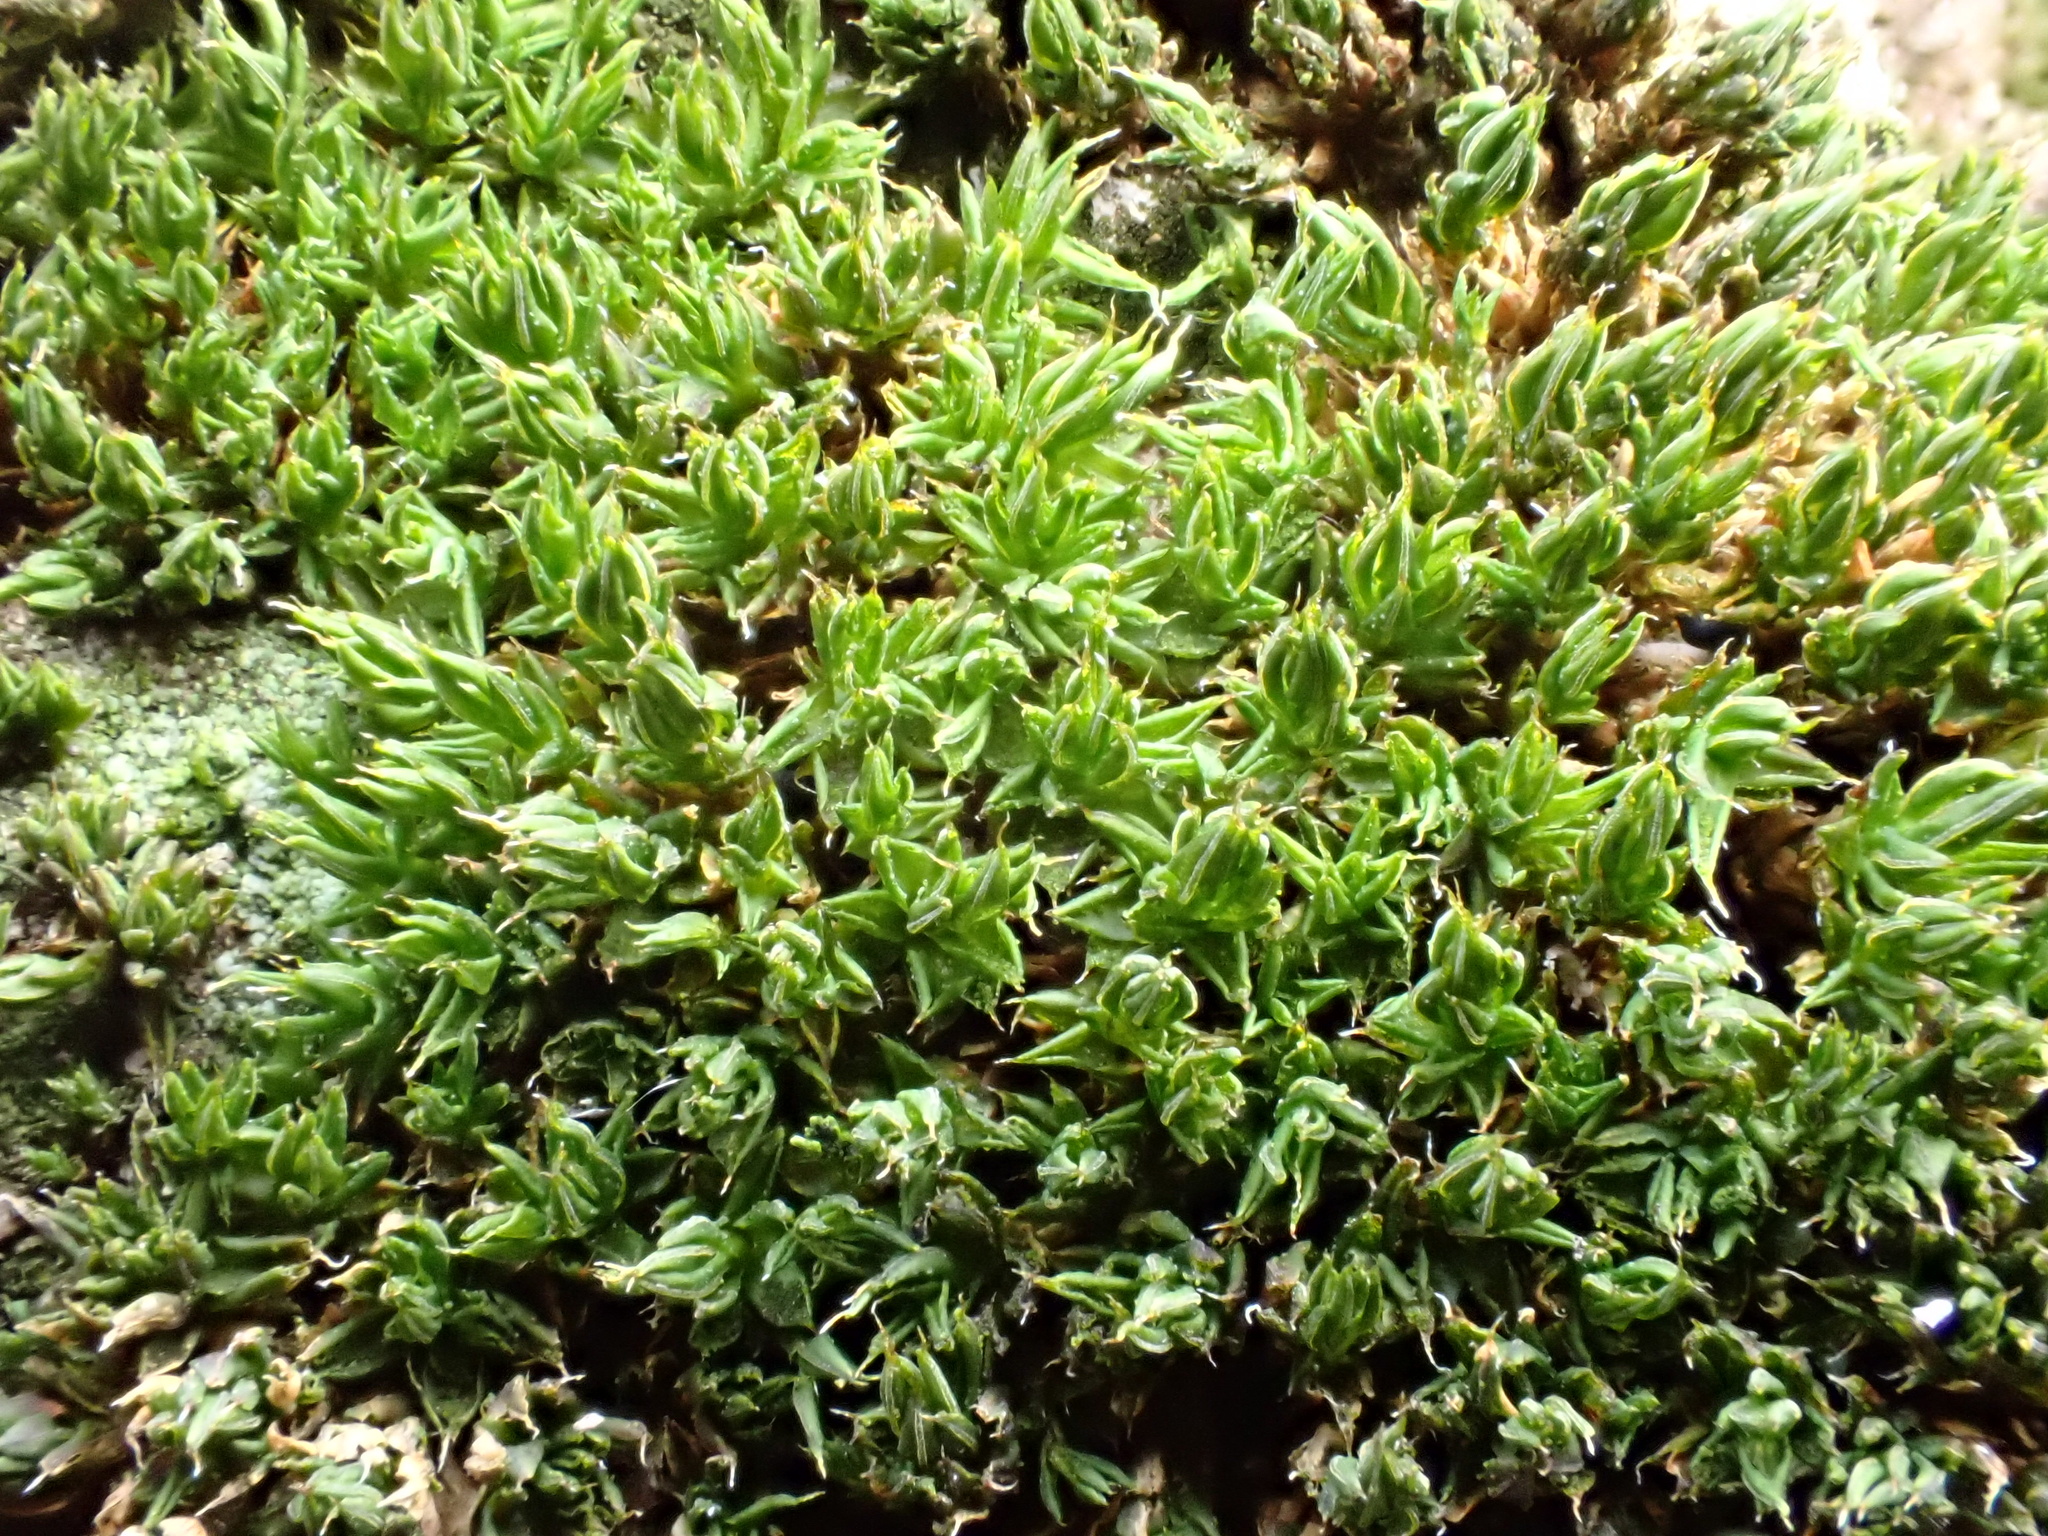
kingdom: Plantae
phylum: Bryophyta
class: Bryopsida
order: Pottiales
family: Pottiaceae
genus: Syntrichia
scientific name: Syntrichia papillosa
